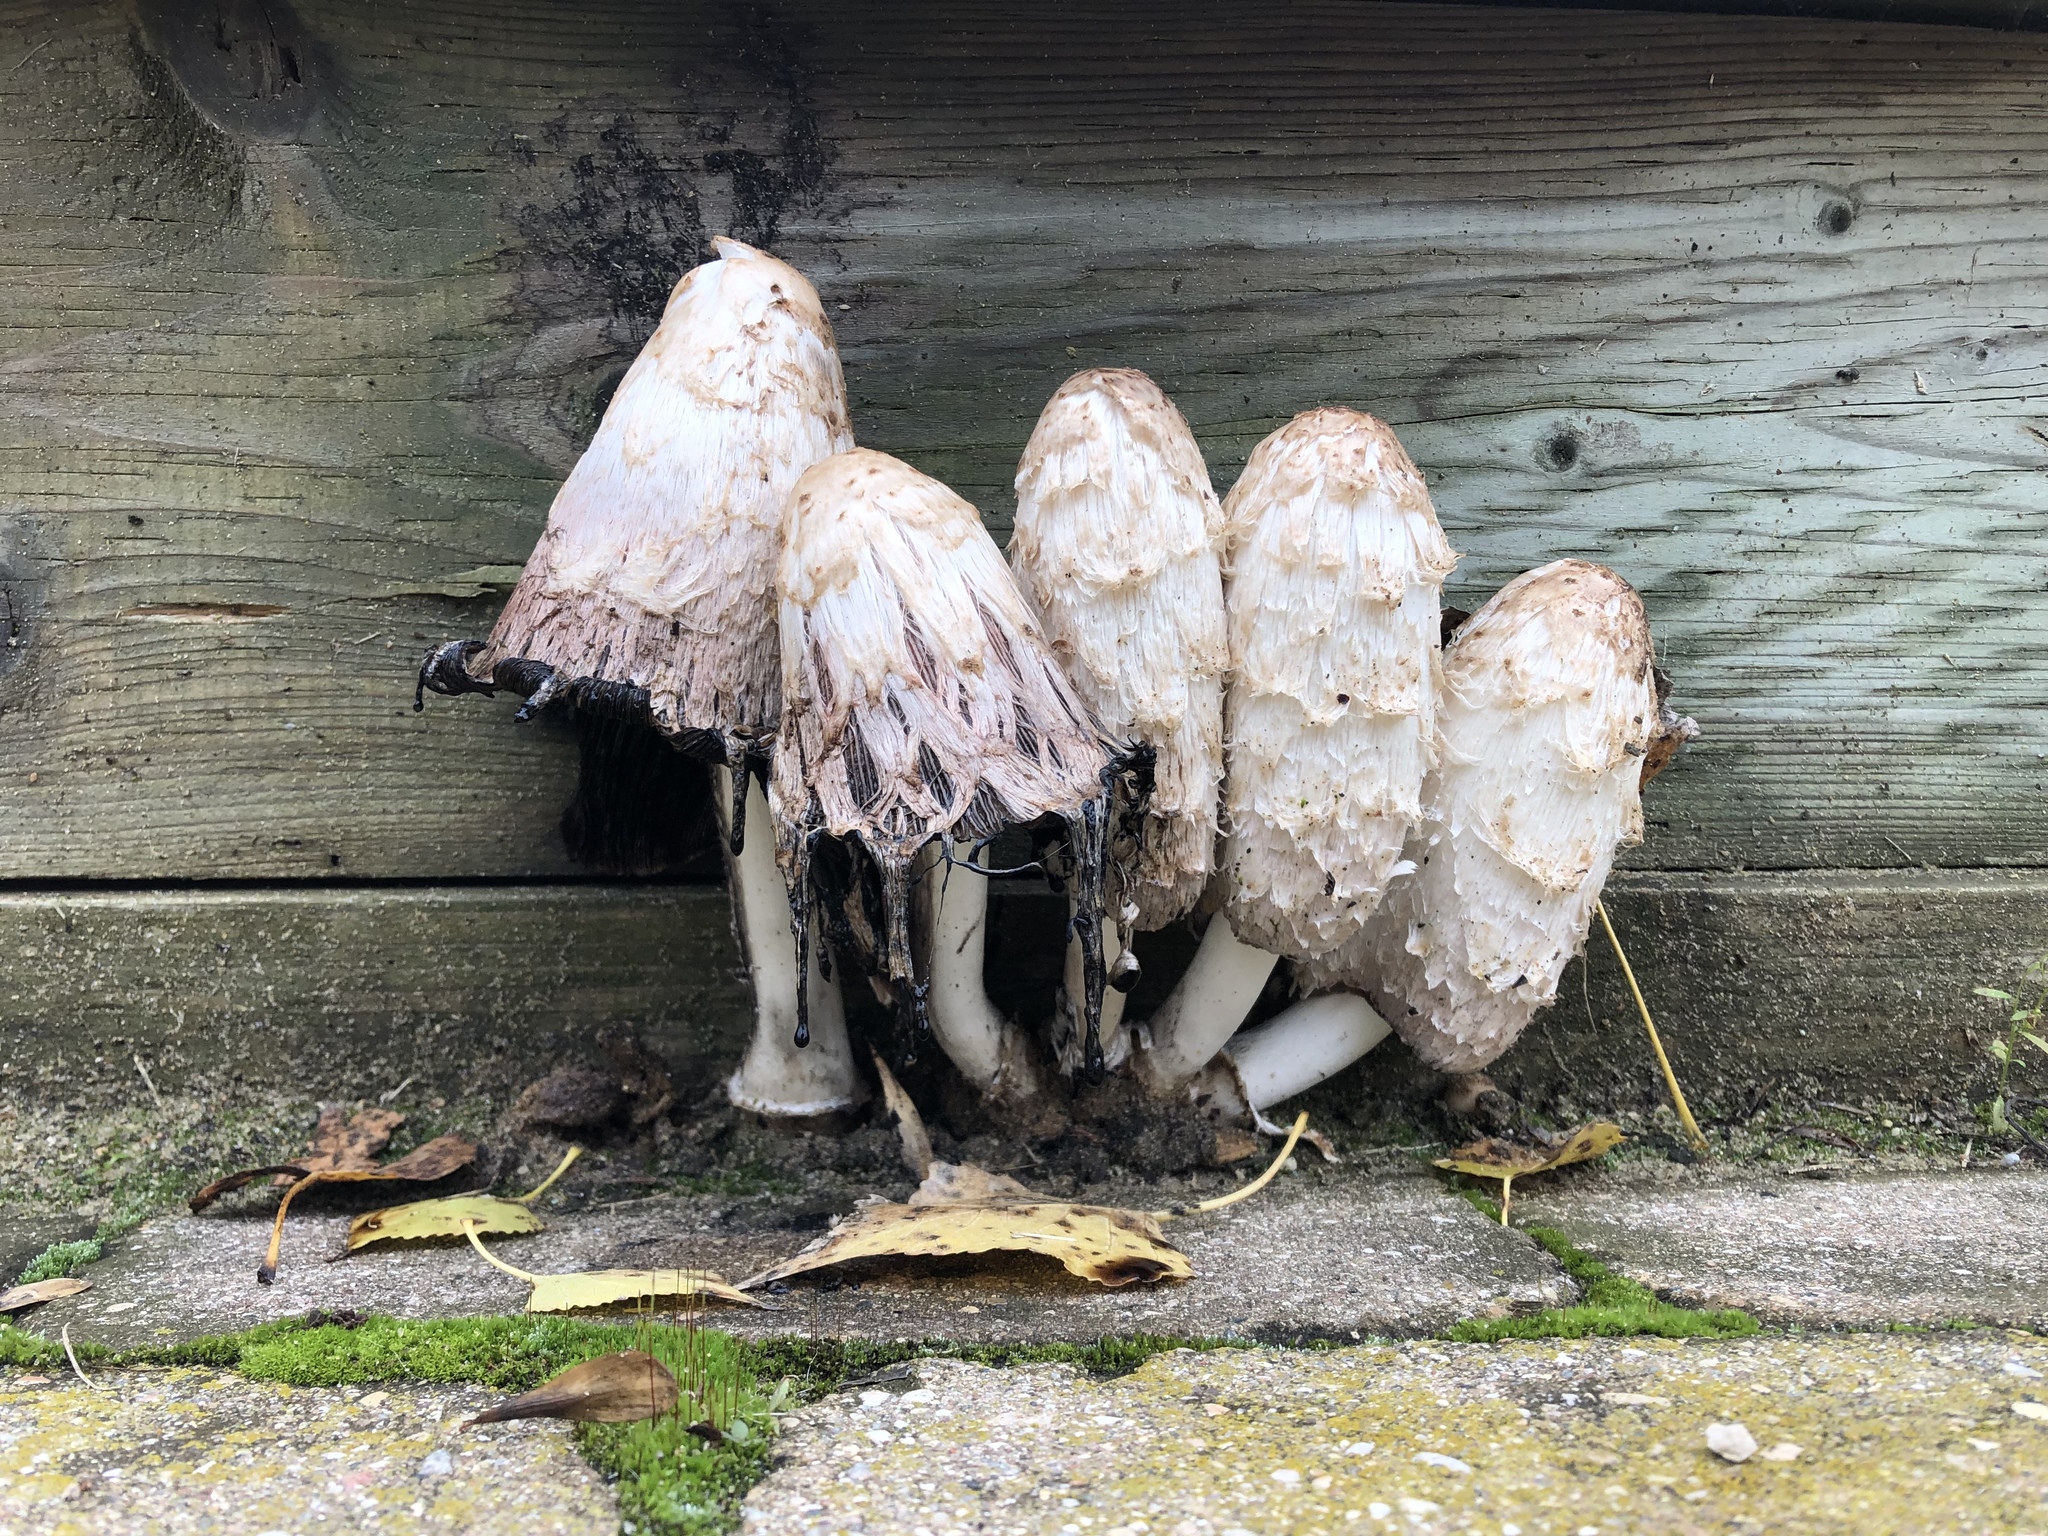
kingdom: Fungi
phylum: Basidiomycota
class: Agaricomycetes
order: Agaricales
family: Agaricaceae
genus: Coprinus
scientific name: Coprinus comatus
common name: Lawyer's wig
